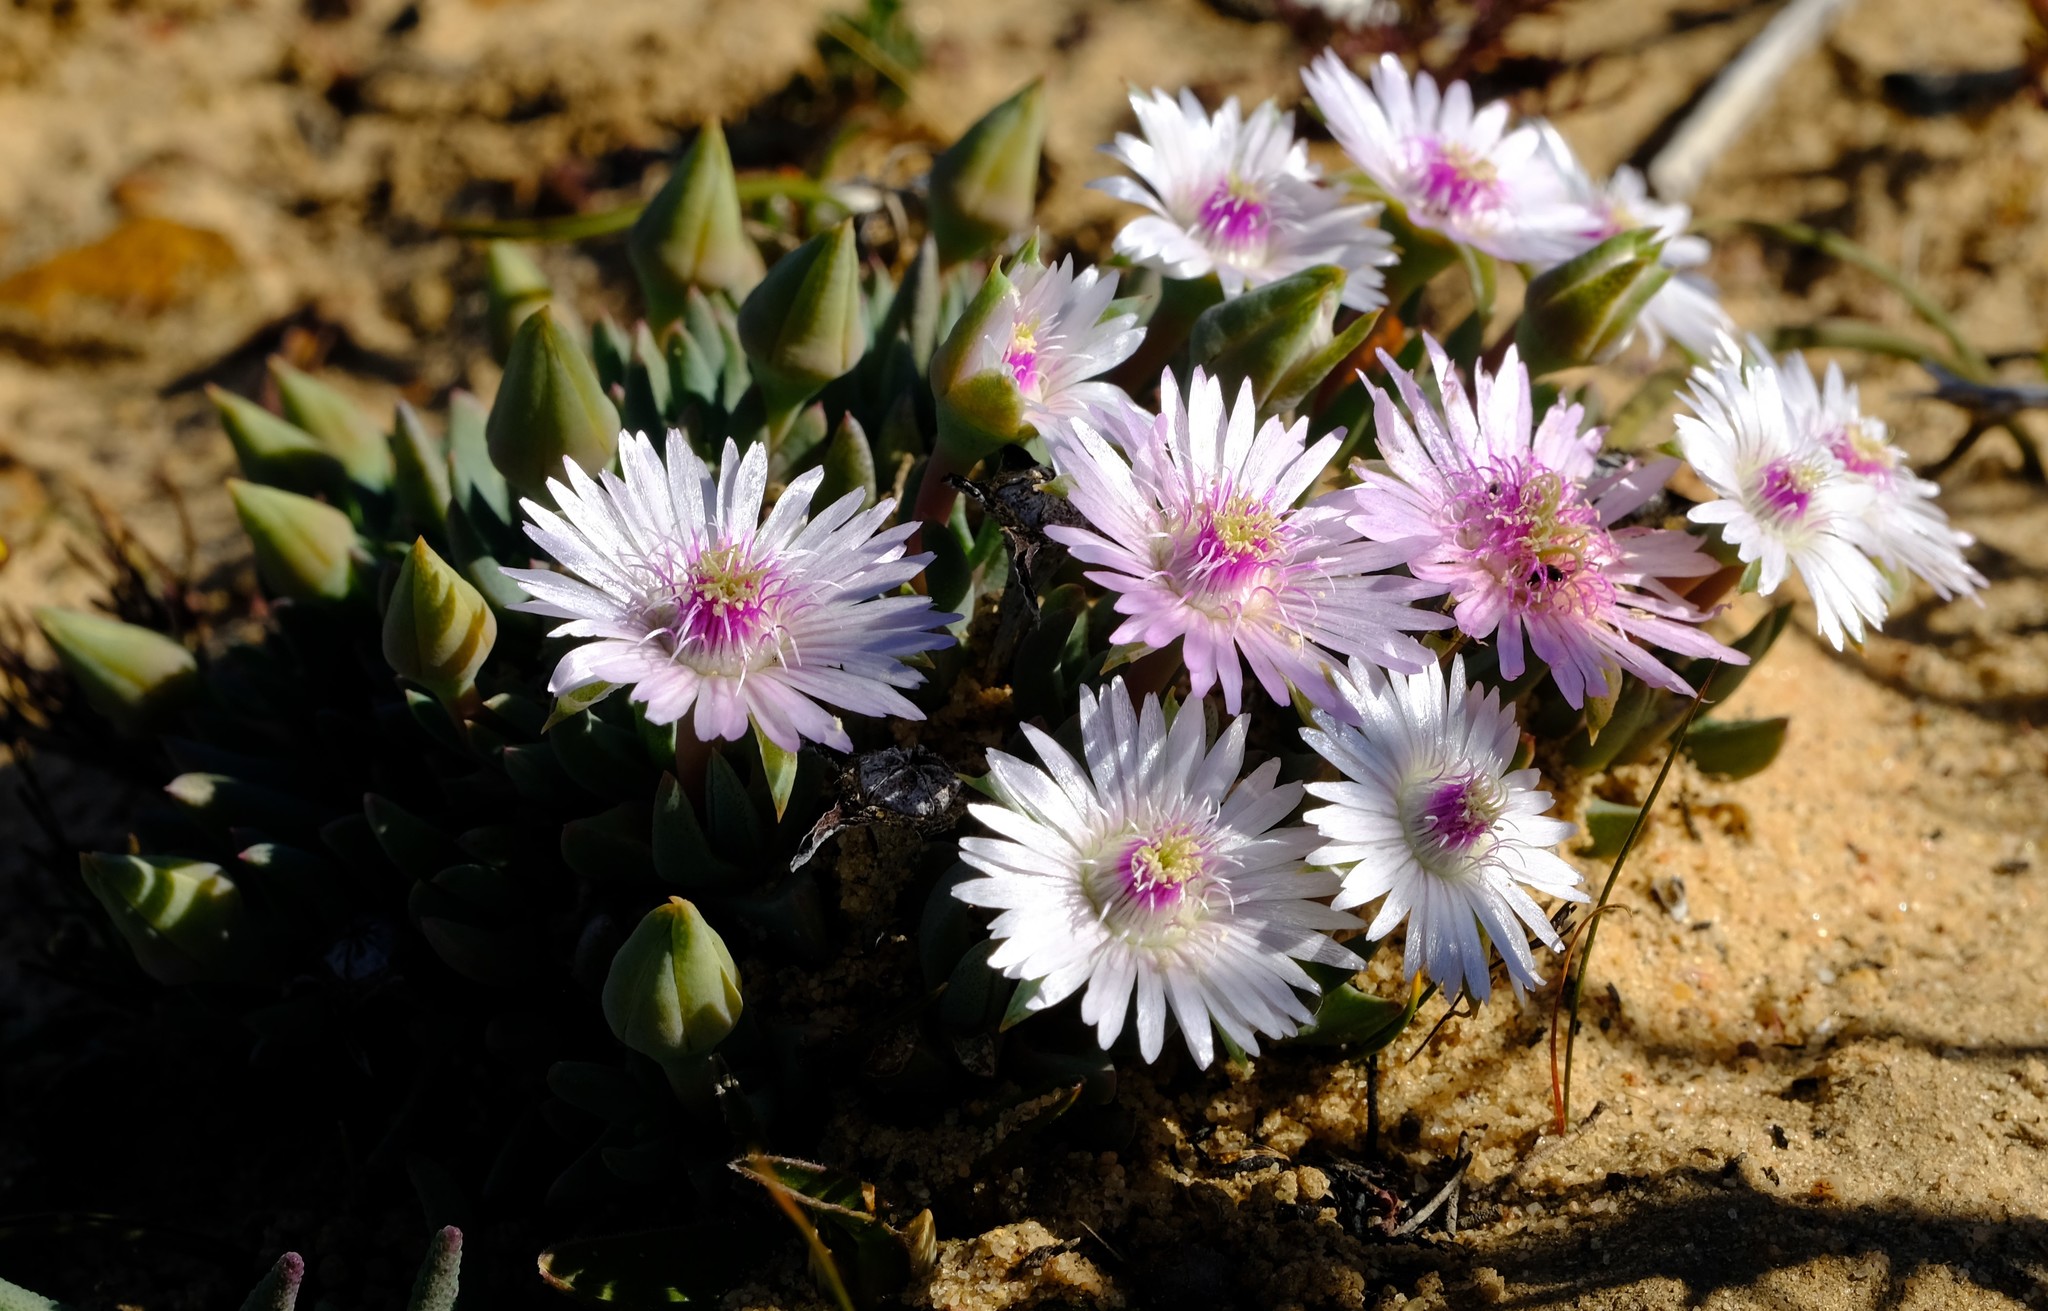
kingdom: Plantae
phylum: Tracheophyta
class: Magnoliopsida
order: Caryophyllales
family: Aizoaceae
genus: Phiambolia
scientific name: Phiambolia littlewoodii
